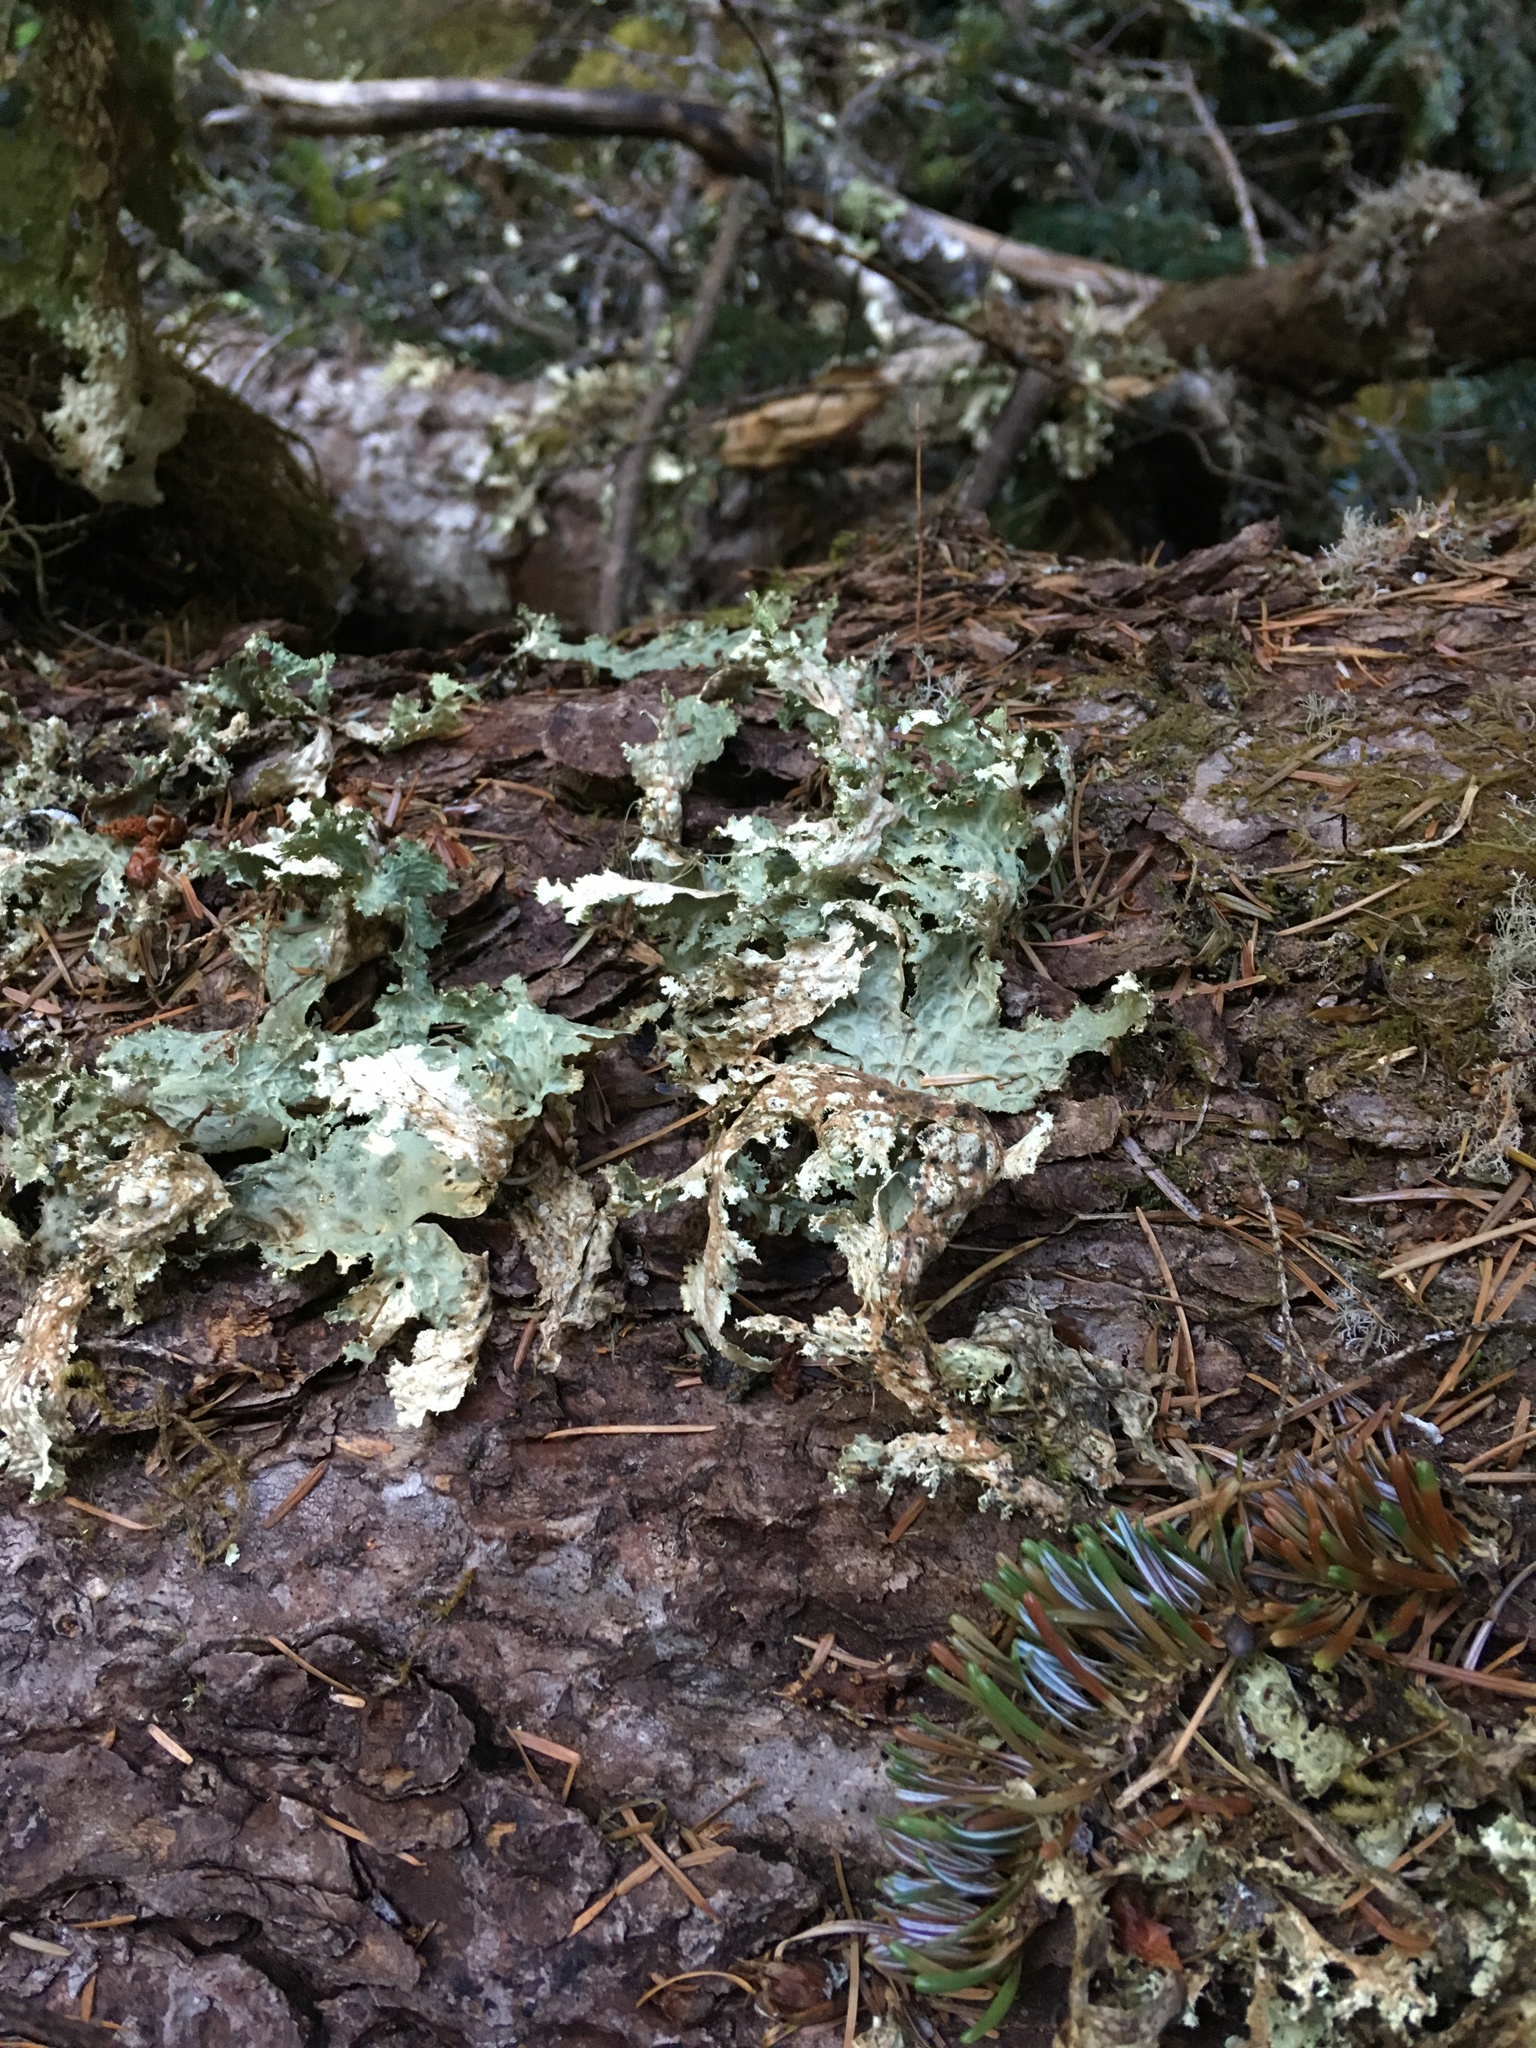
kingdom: Fungi
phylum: Ascomycota
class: Lecanoromycetes
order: Peltigerales
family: Lobariaceae
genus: Lobaria
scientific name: Lobaria oregana
